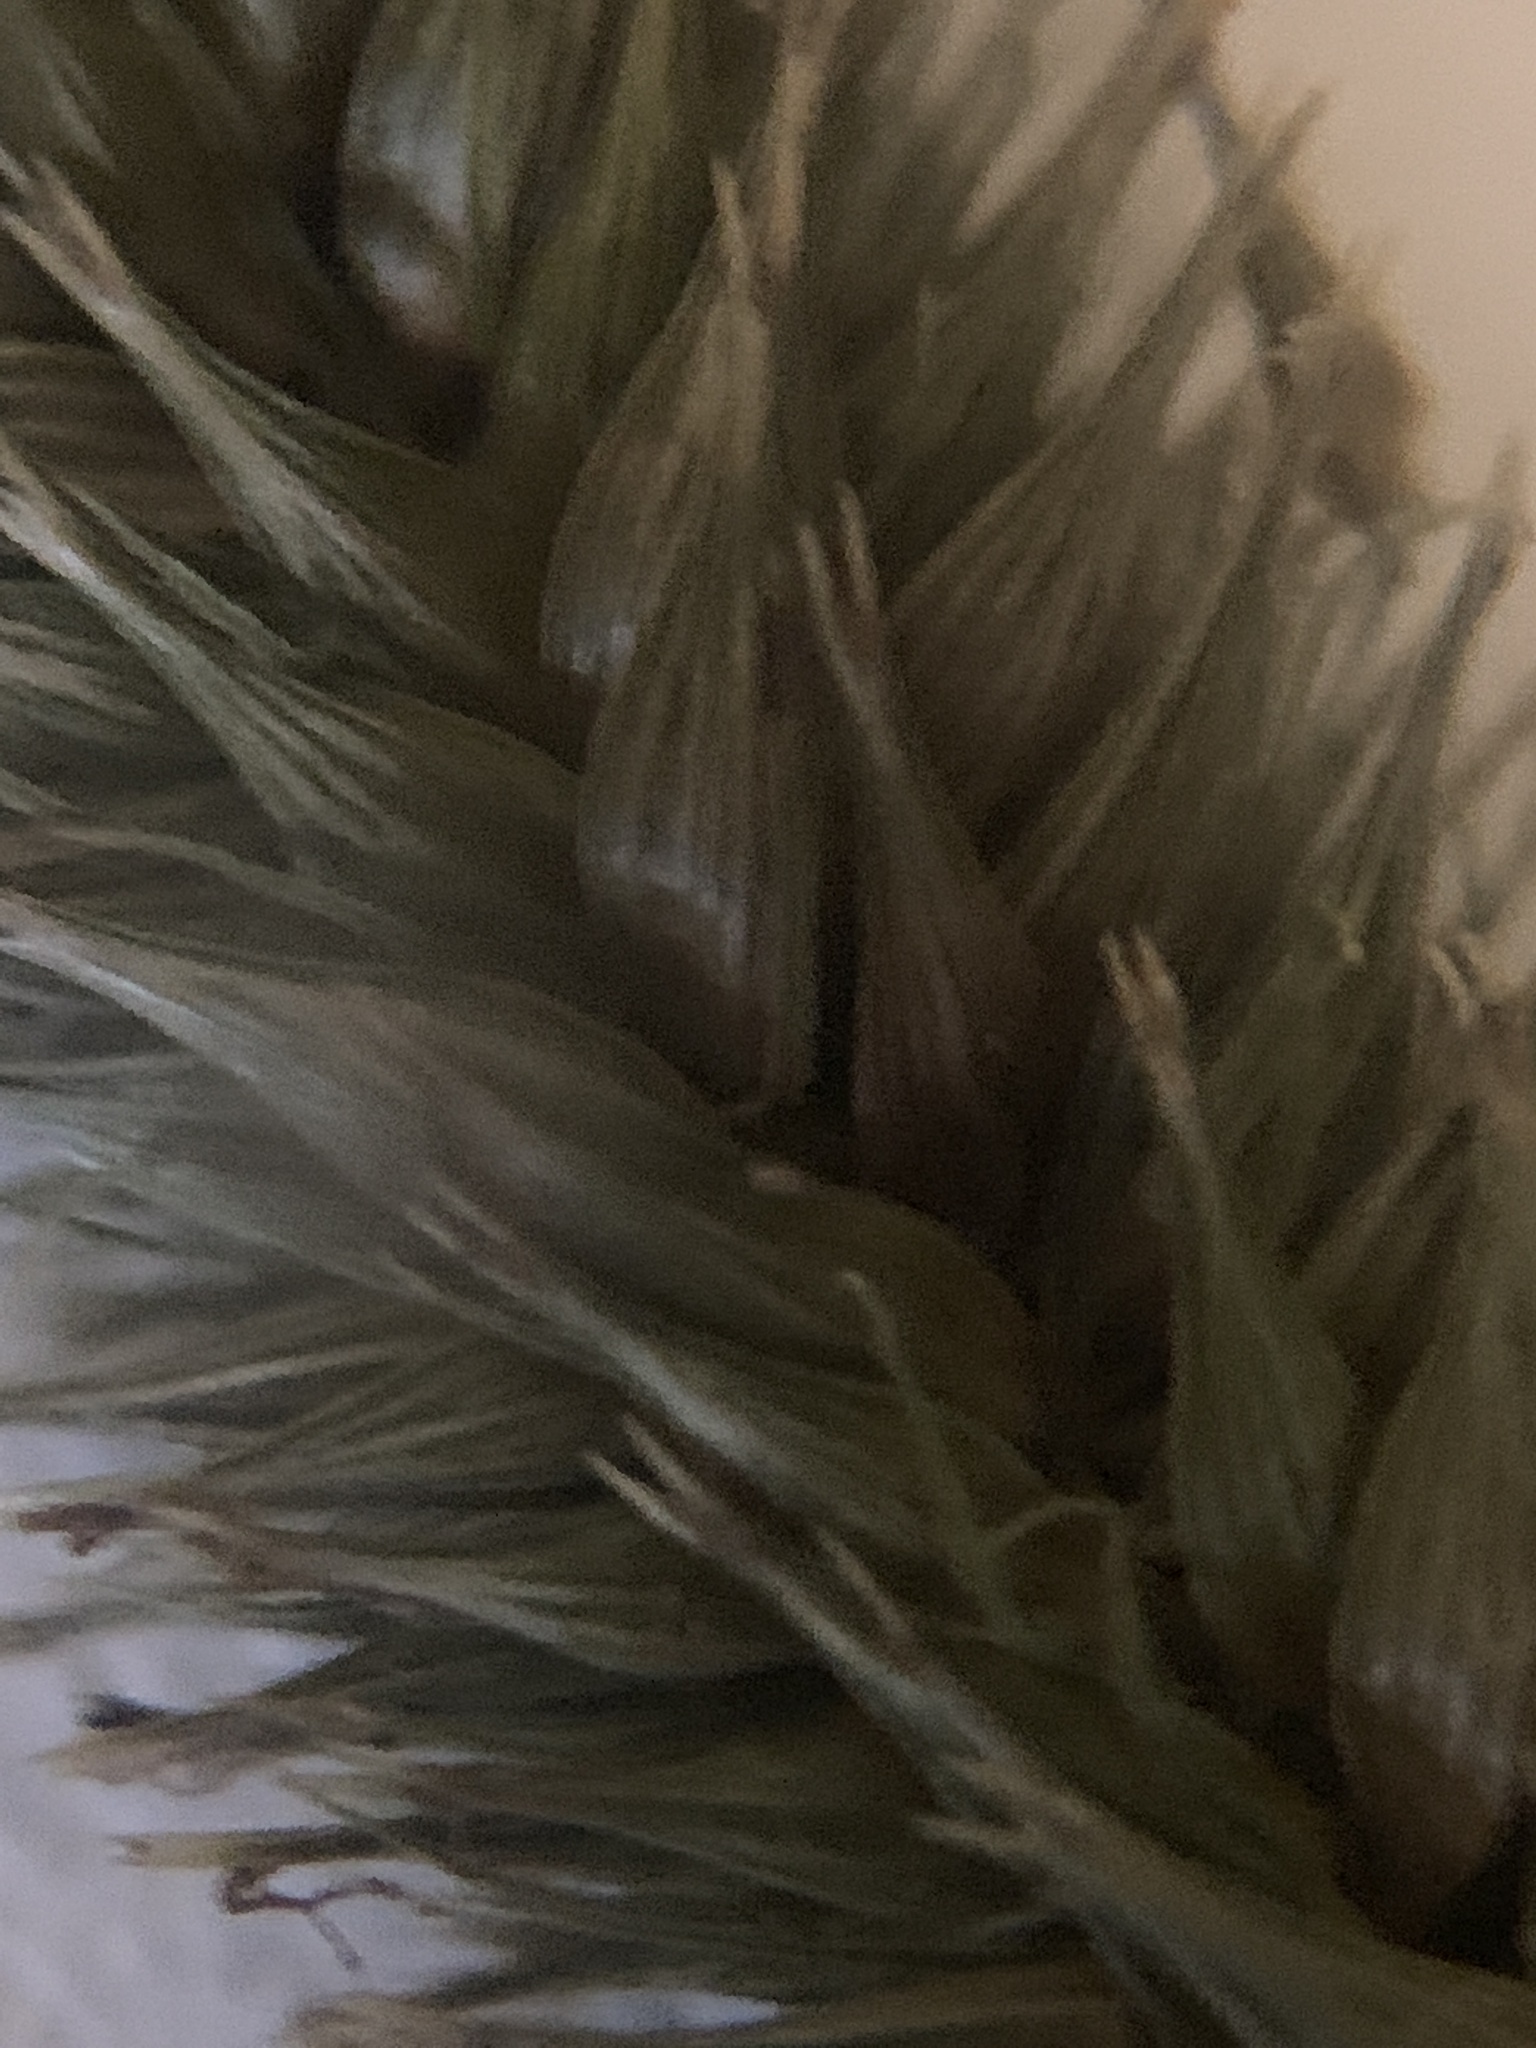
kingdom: Plantae
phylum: Tracheophyta
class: Liliopsida
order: Poales
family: Cyperaceae
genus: Carex
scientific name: Carex pseudocyperus
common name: Cyperus sedge
